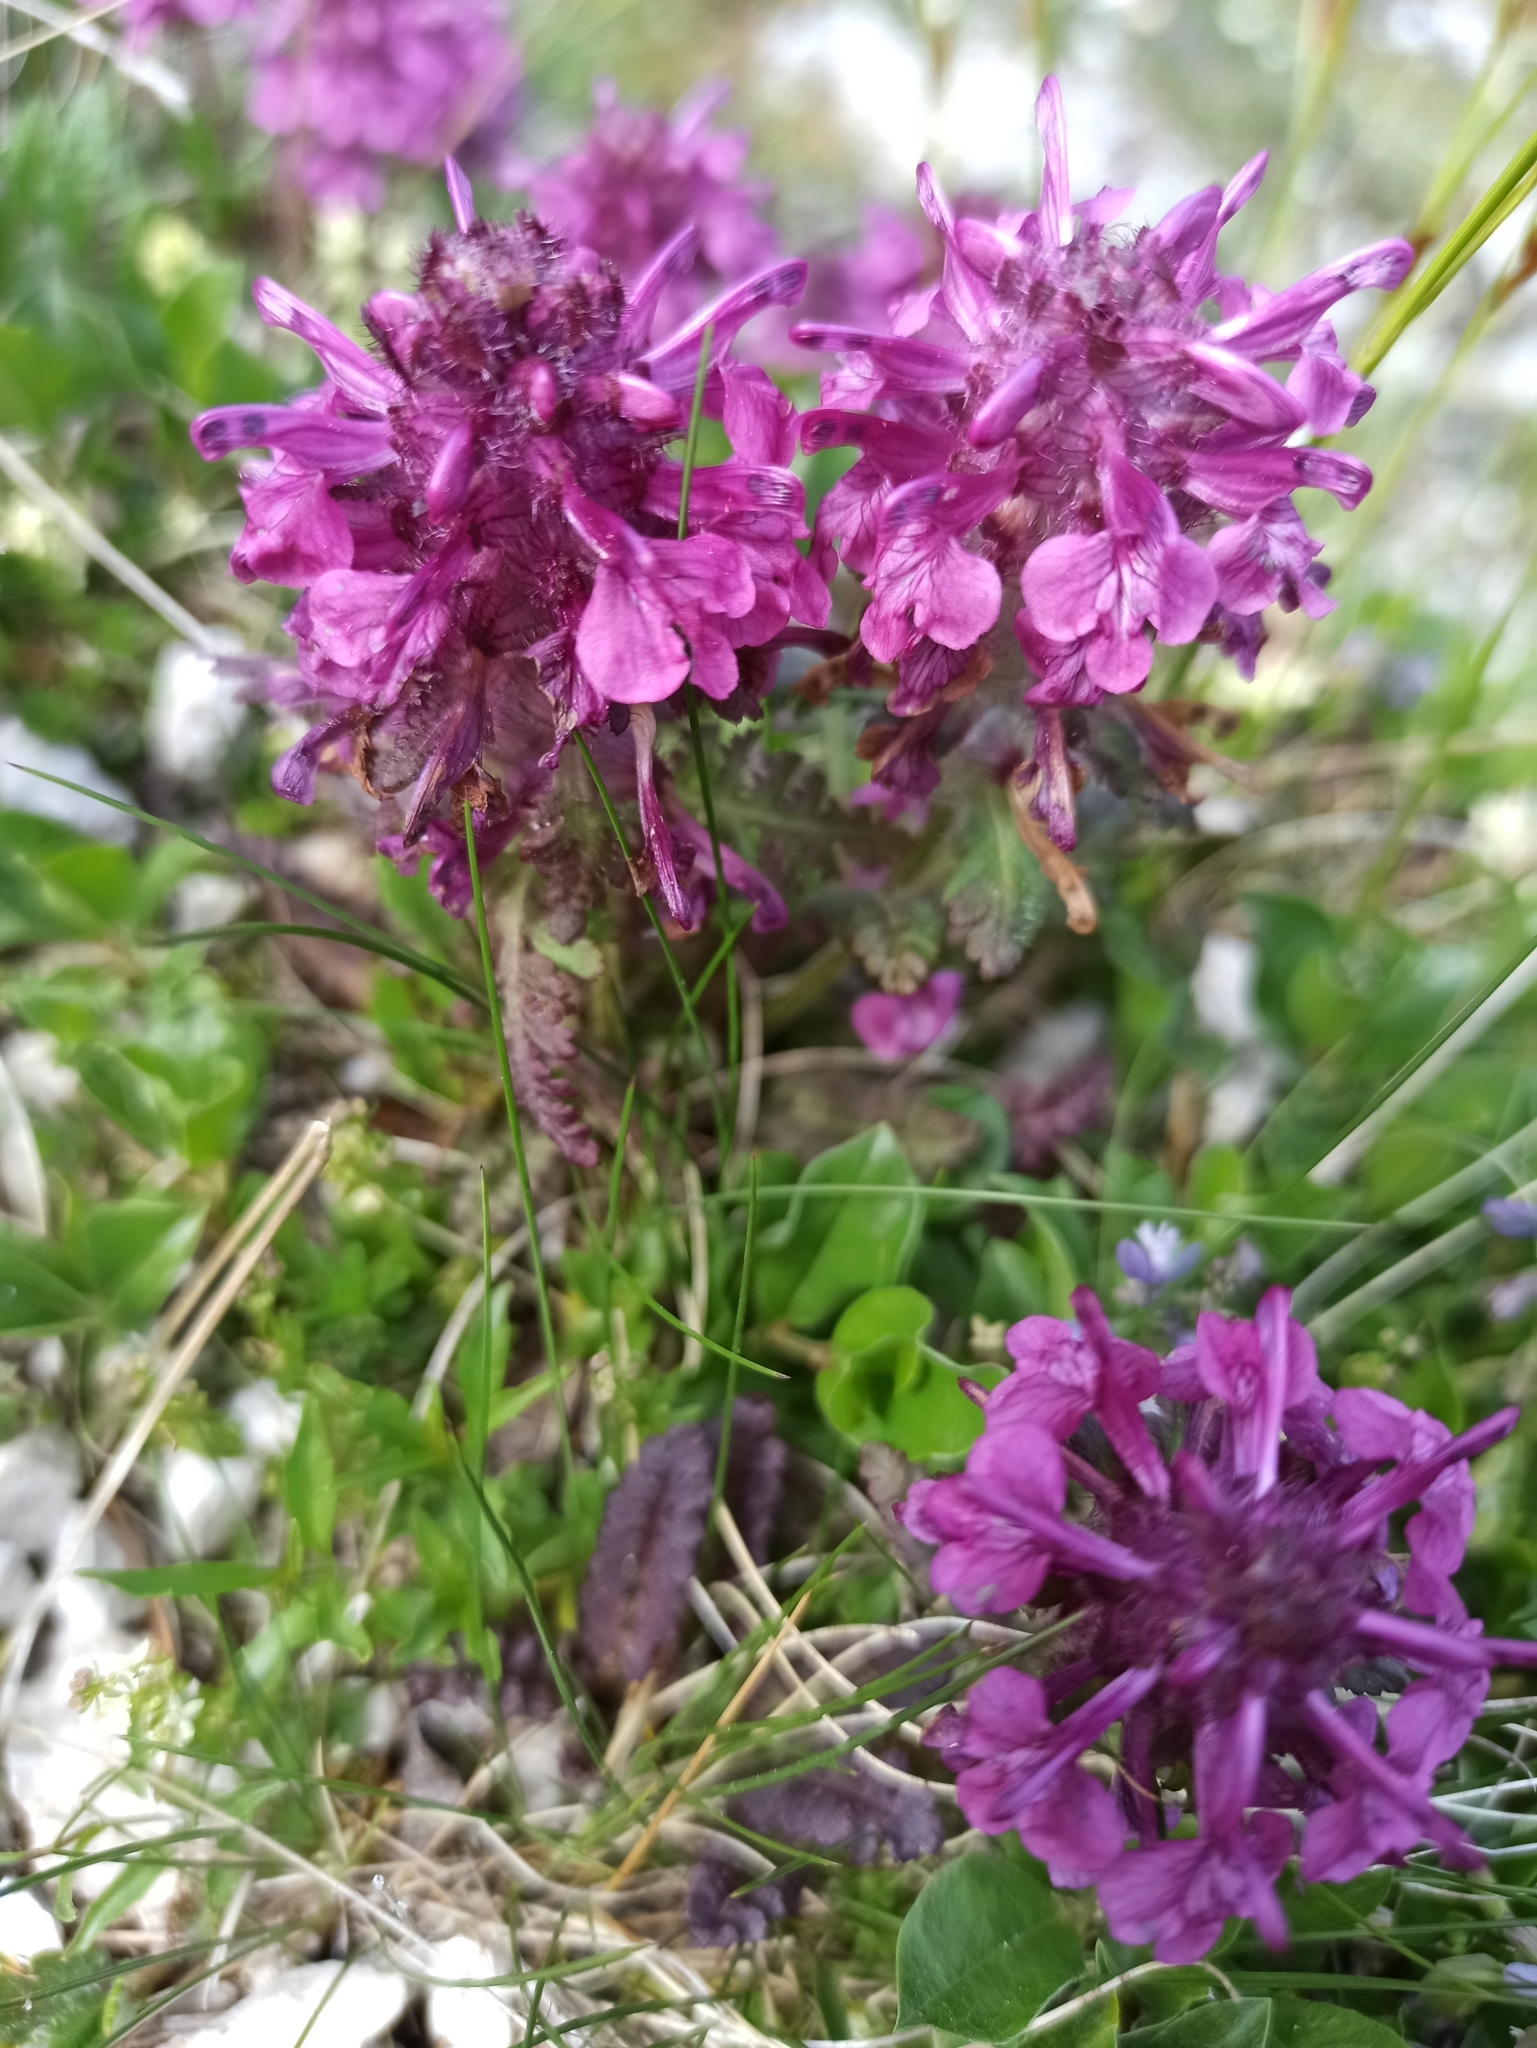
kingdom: Plantae
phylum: Tracheophyta
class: Magnoliopsida
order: Lamiales
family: Orobanchaceae
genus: Pedicularis
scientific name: Pedicularis verticillata
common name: Whorled lousewort
